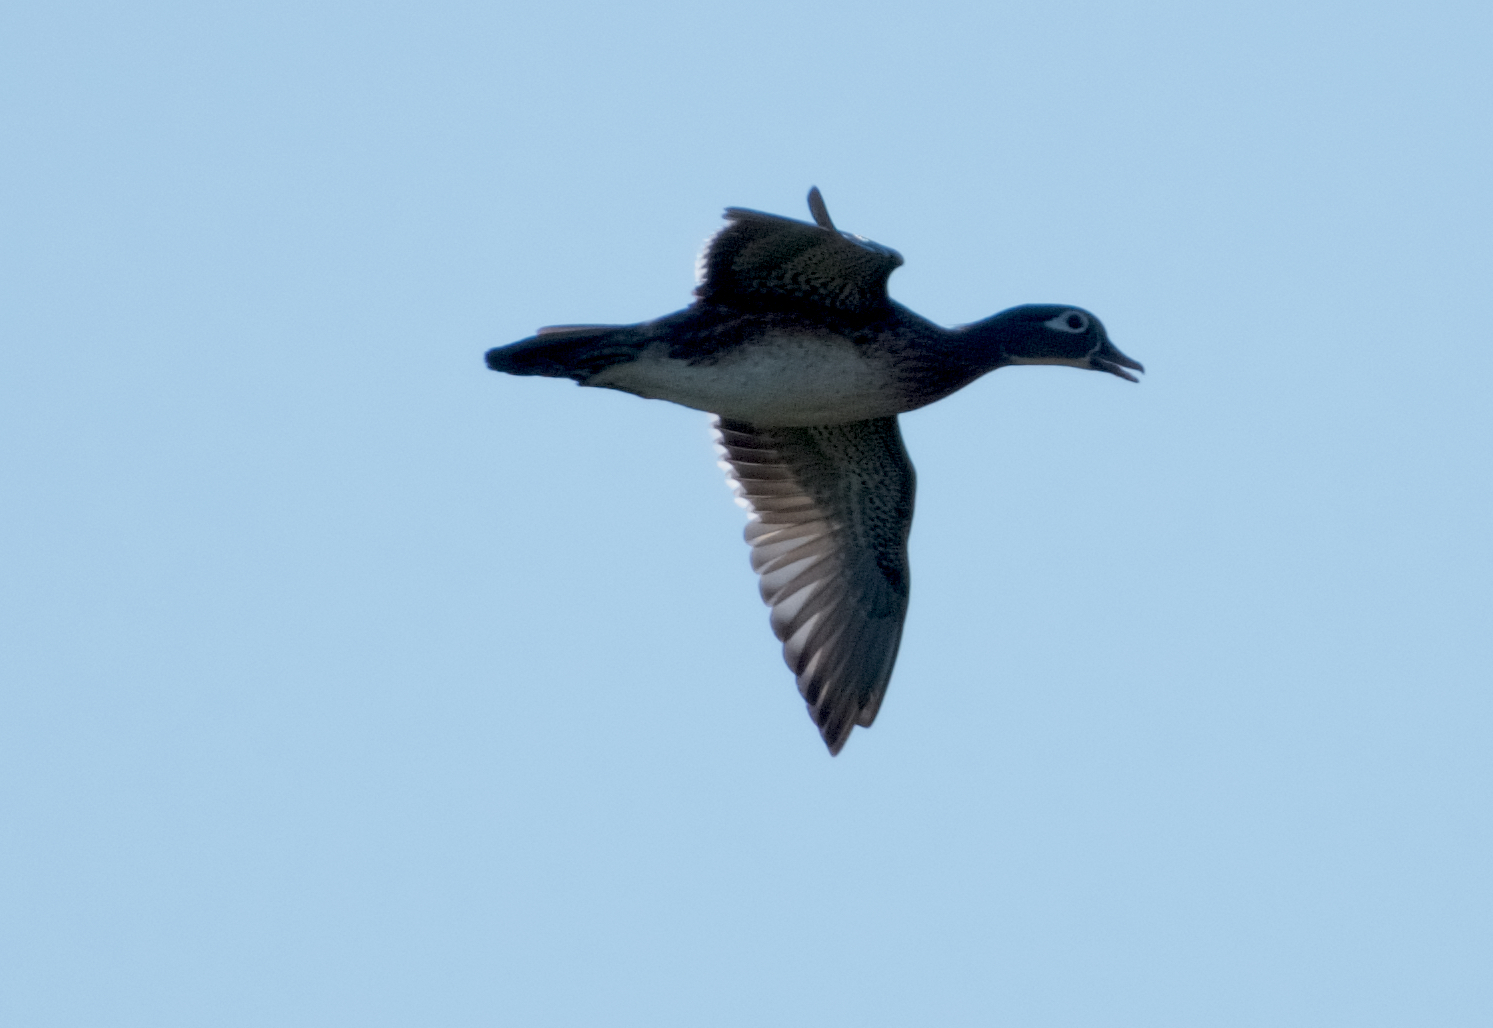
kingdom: Animalia
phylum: Chordata
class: Aves
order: Anseriformes
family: Anatidae
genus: Aix
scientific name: Aix sponsa
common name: Wood duck
